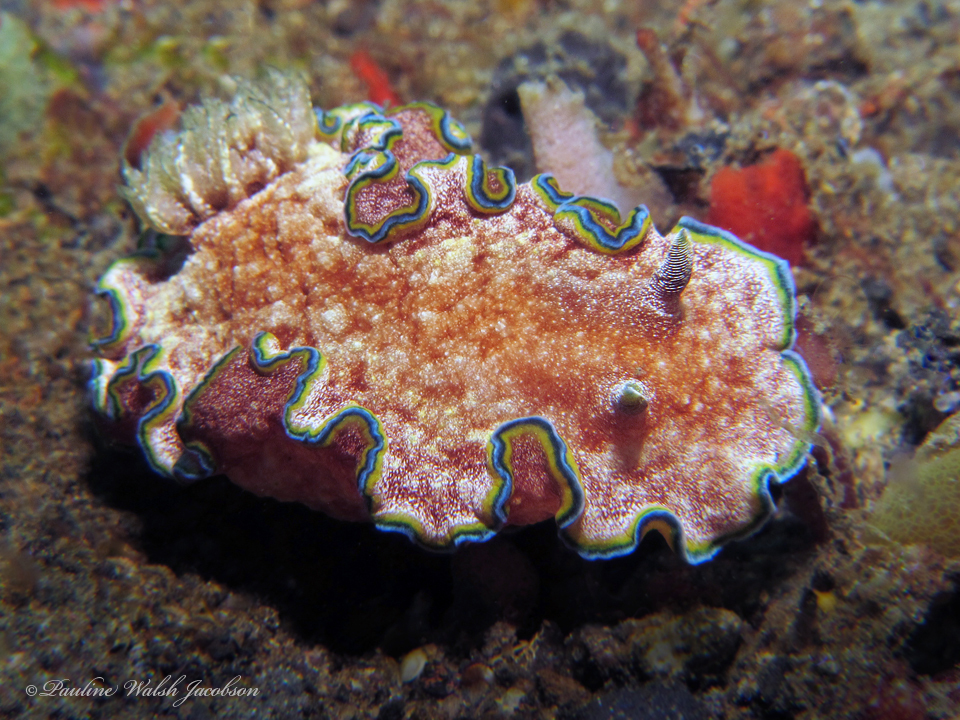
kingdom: Animalia
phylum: Mollusca
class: Gastropoda
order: Nudibranchia
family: Chromodorididae
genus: Glossodoris
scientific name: Glossodoris acosti
